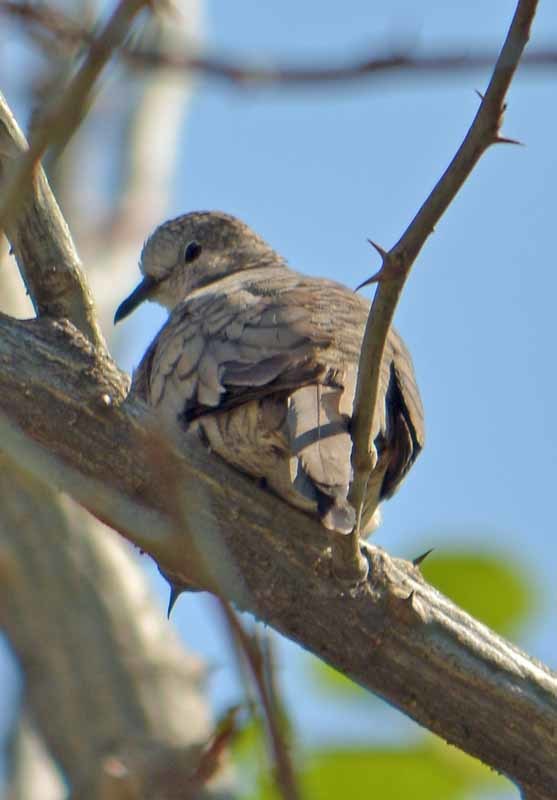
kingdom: Animalia
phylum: Chordata
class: Aves
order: Columbiformes
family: Columbidae
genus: Columbina
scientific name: Columbina inca
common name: Inca dove
